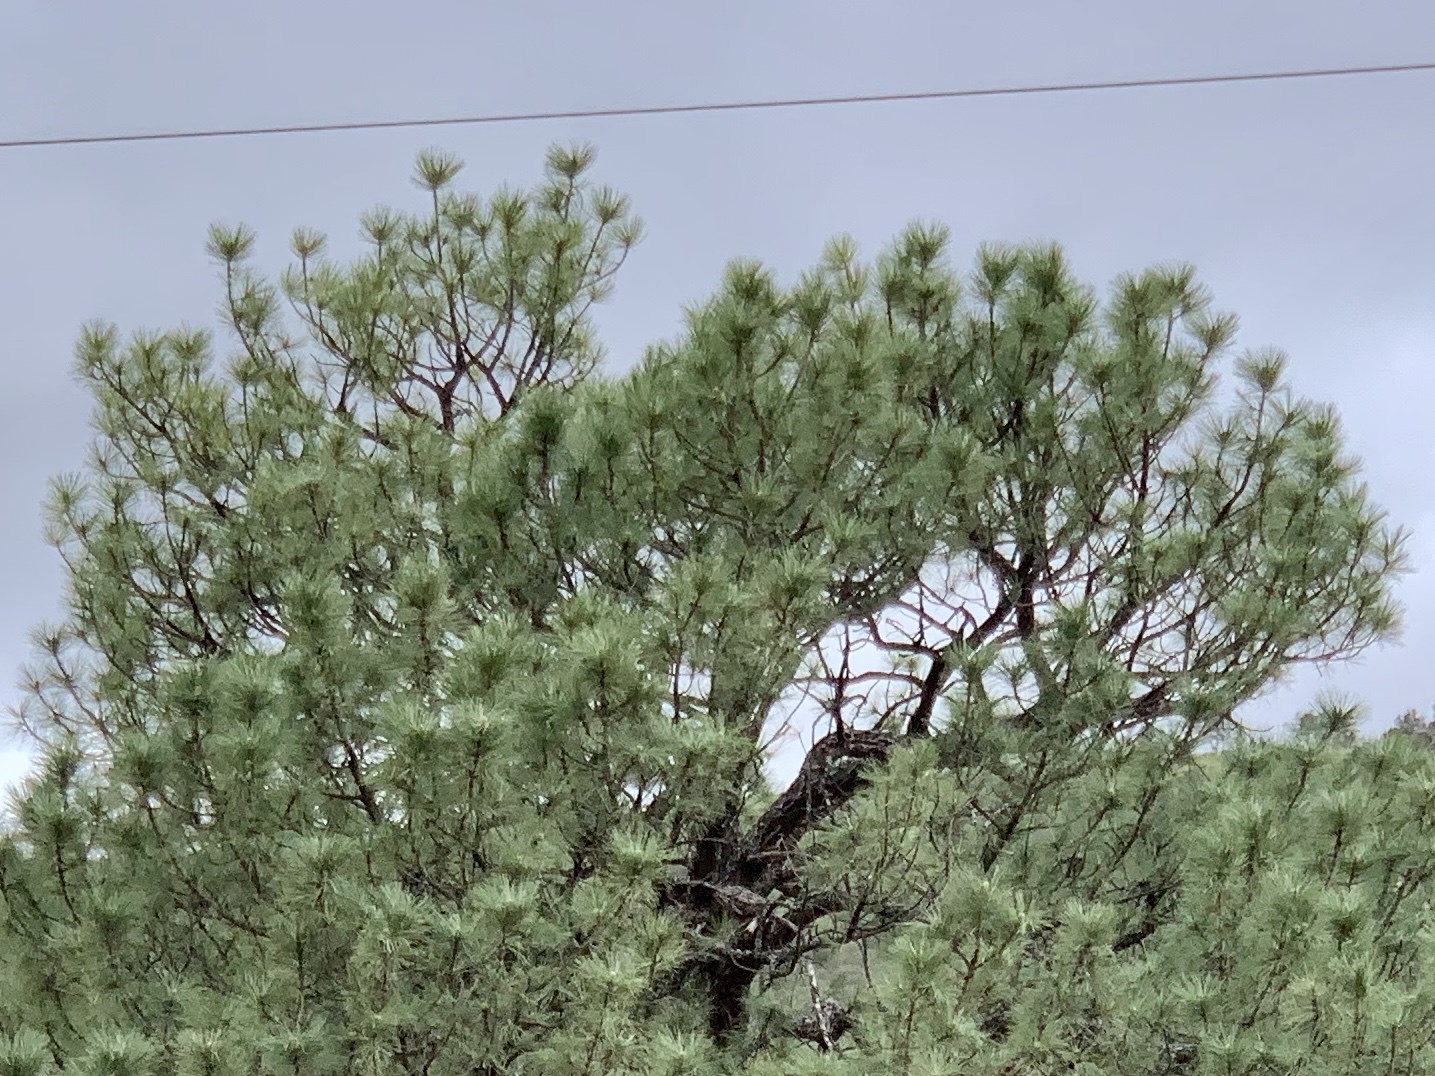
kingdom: Plantae
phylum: Tracheophyta
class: Pinopsida
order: Pinales
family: Pinaceae
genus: Pinus
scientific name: Pinus ponderosa
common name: Western yellow-pine
